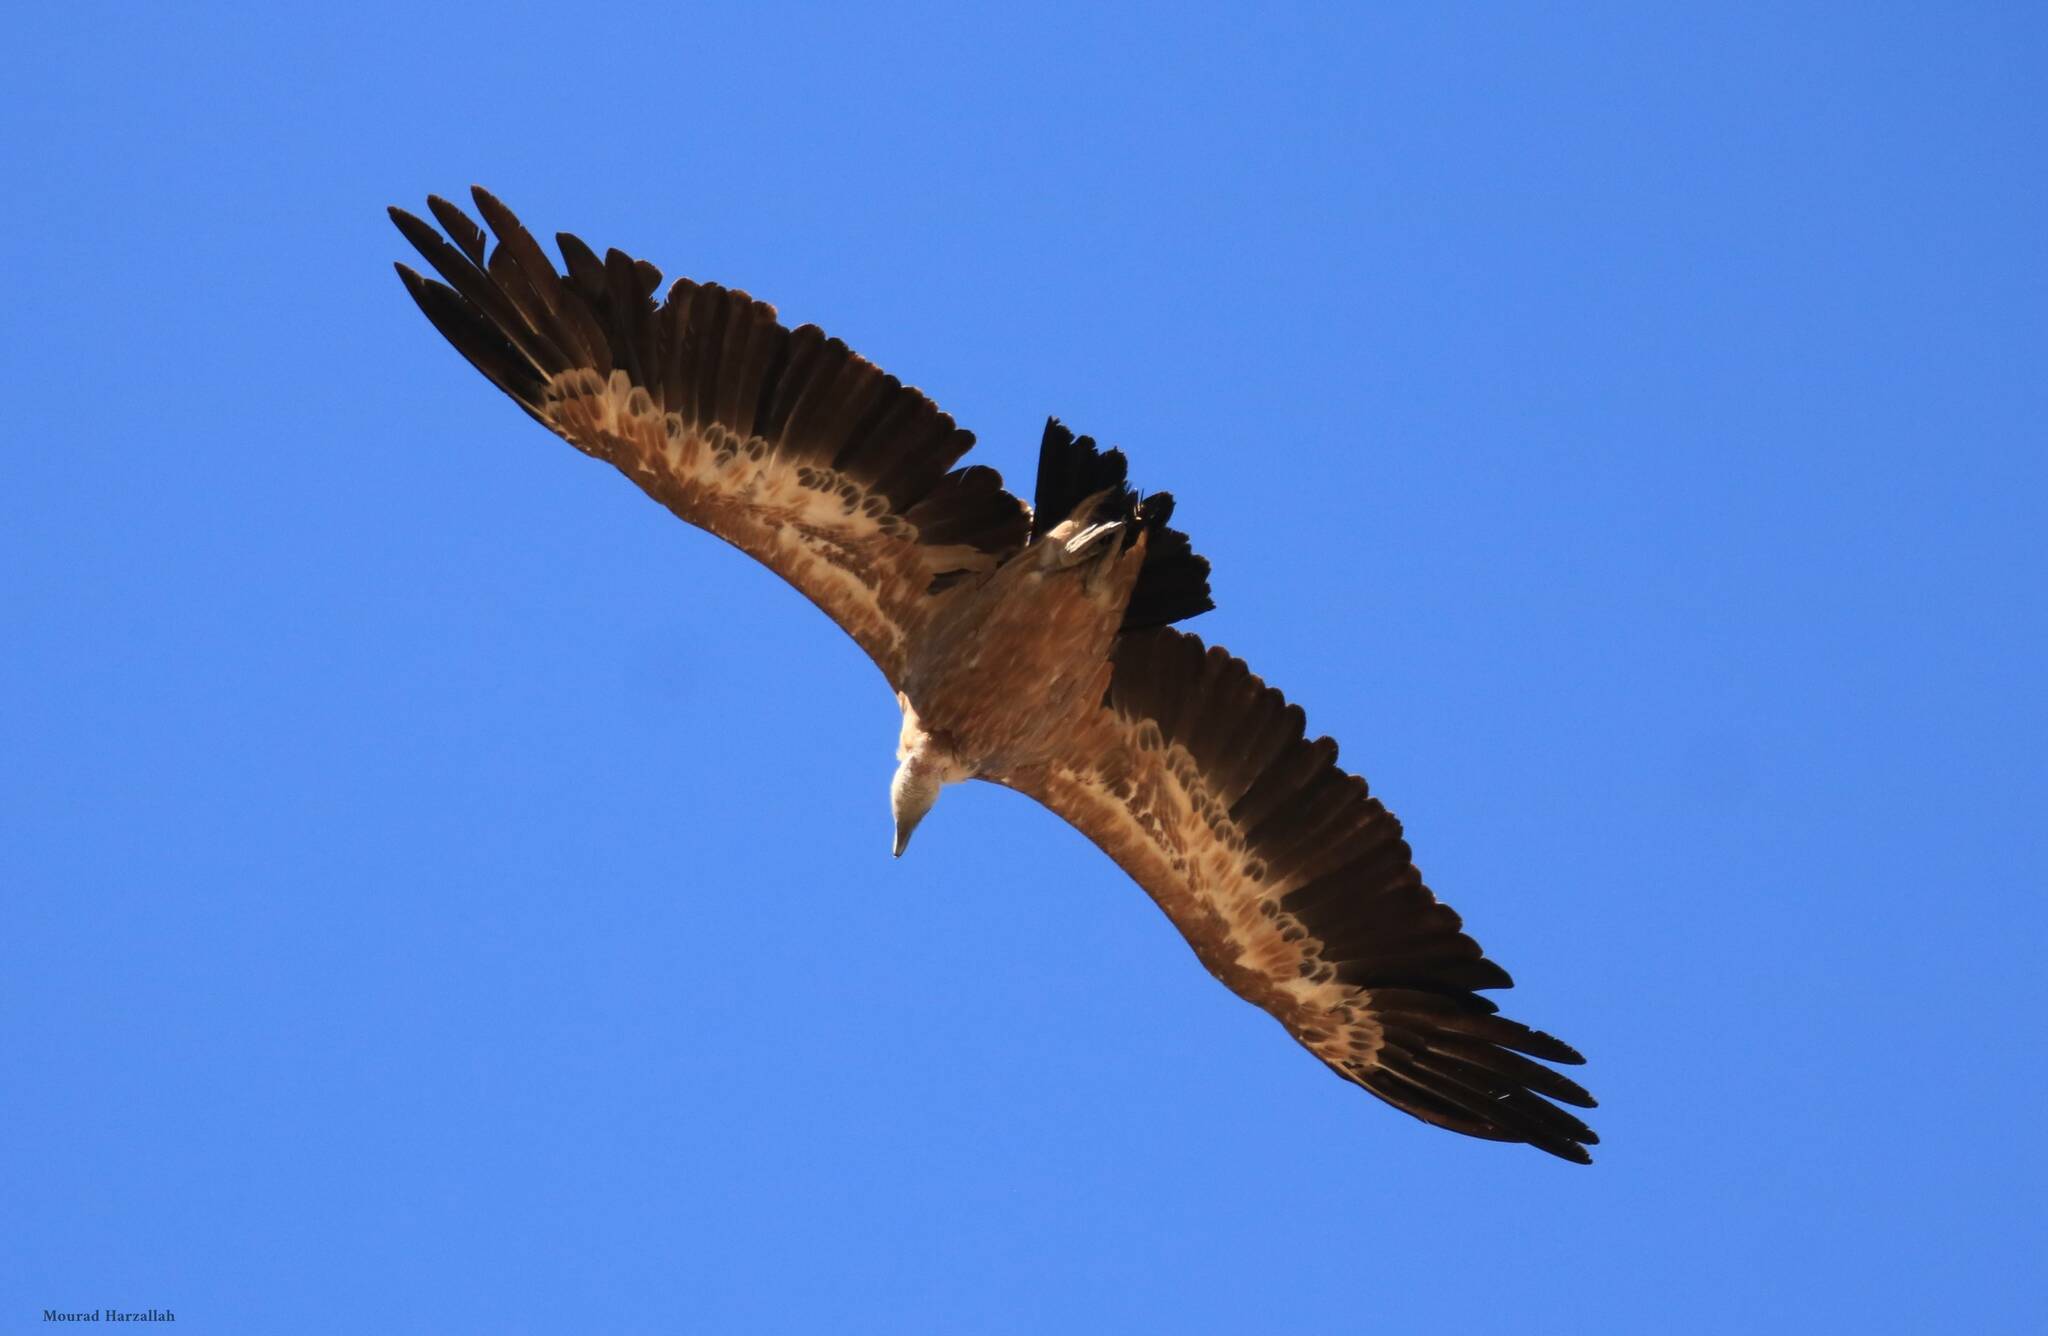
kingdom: Animalia
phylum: Chordata
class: Aves
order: Accipitriformes
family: Accipitridae
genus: Gyps
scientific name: Gyps fulvus
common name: Griffon vulture
